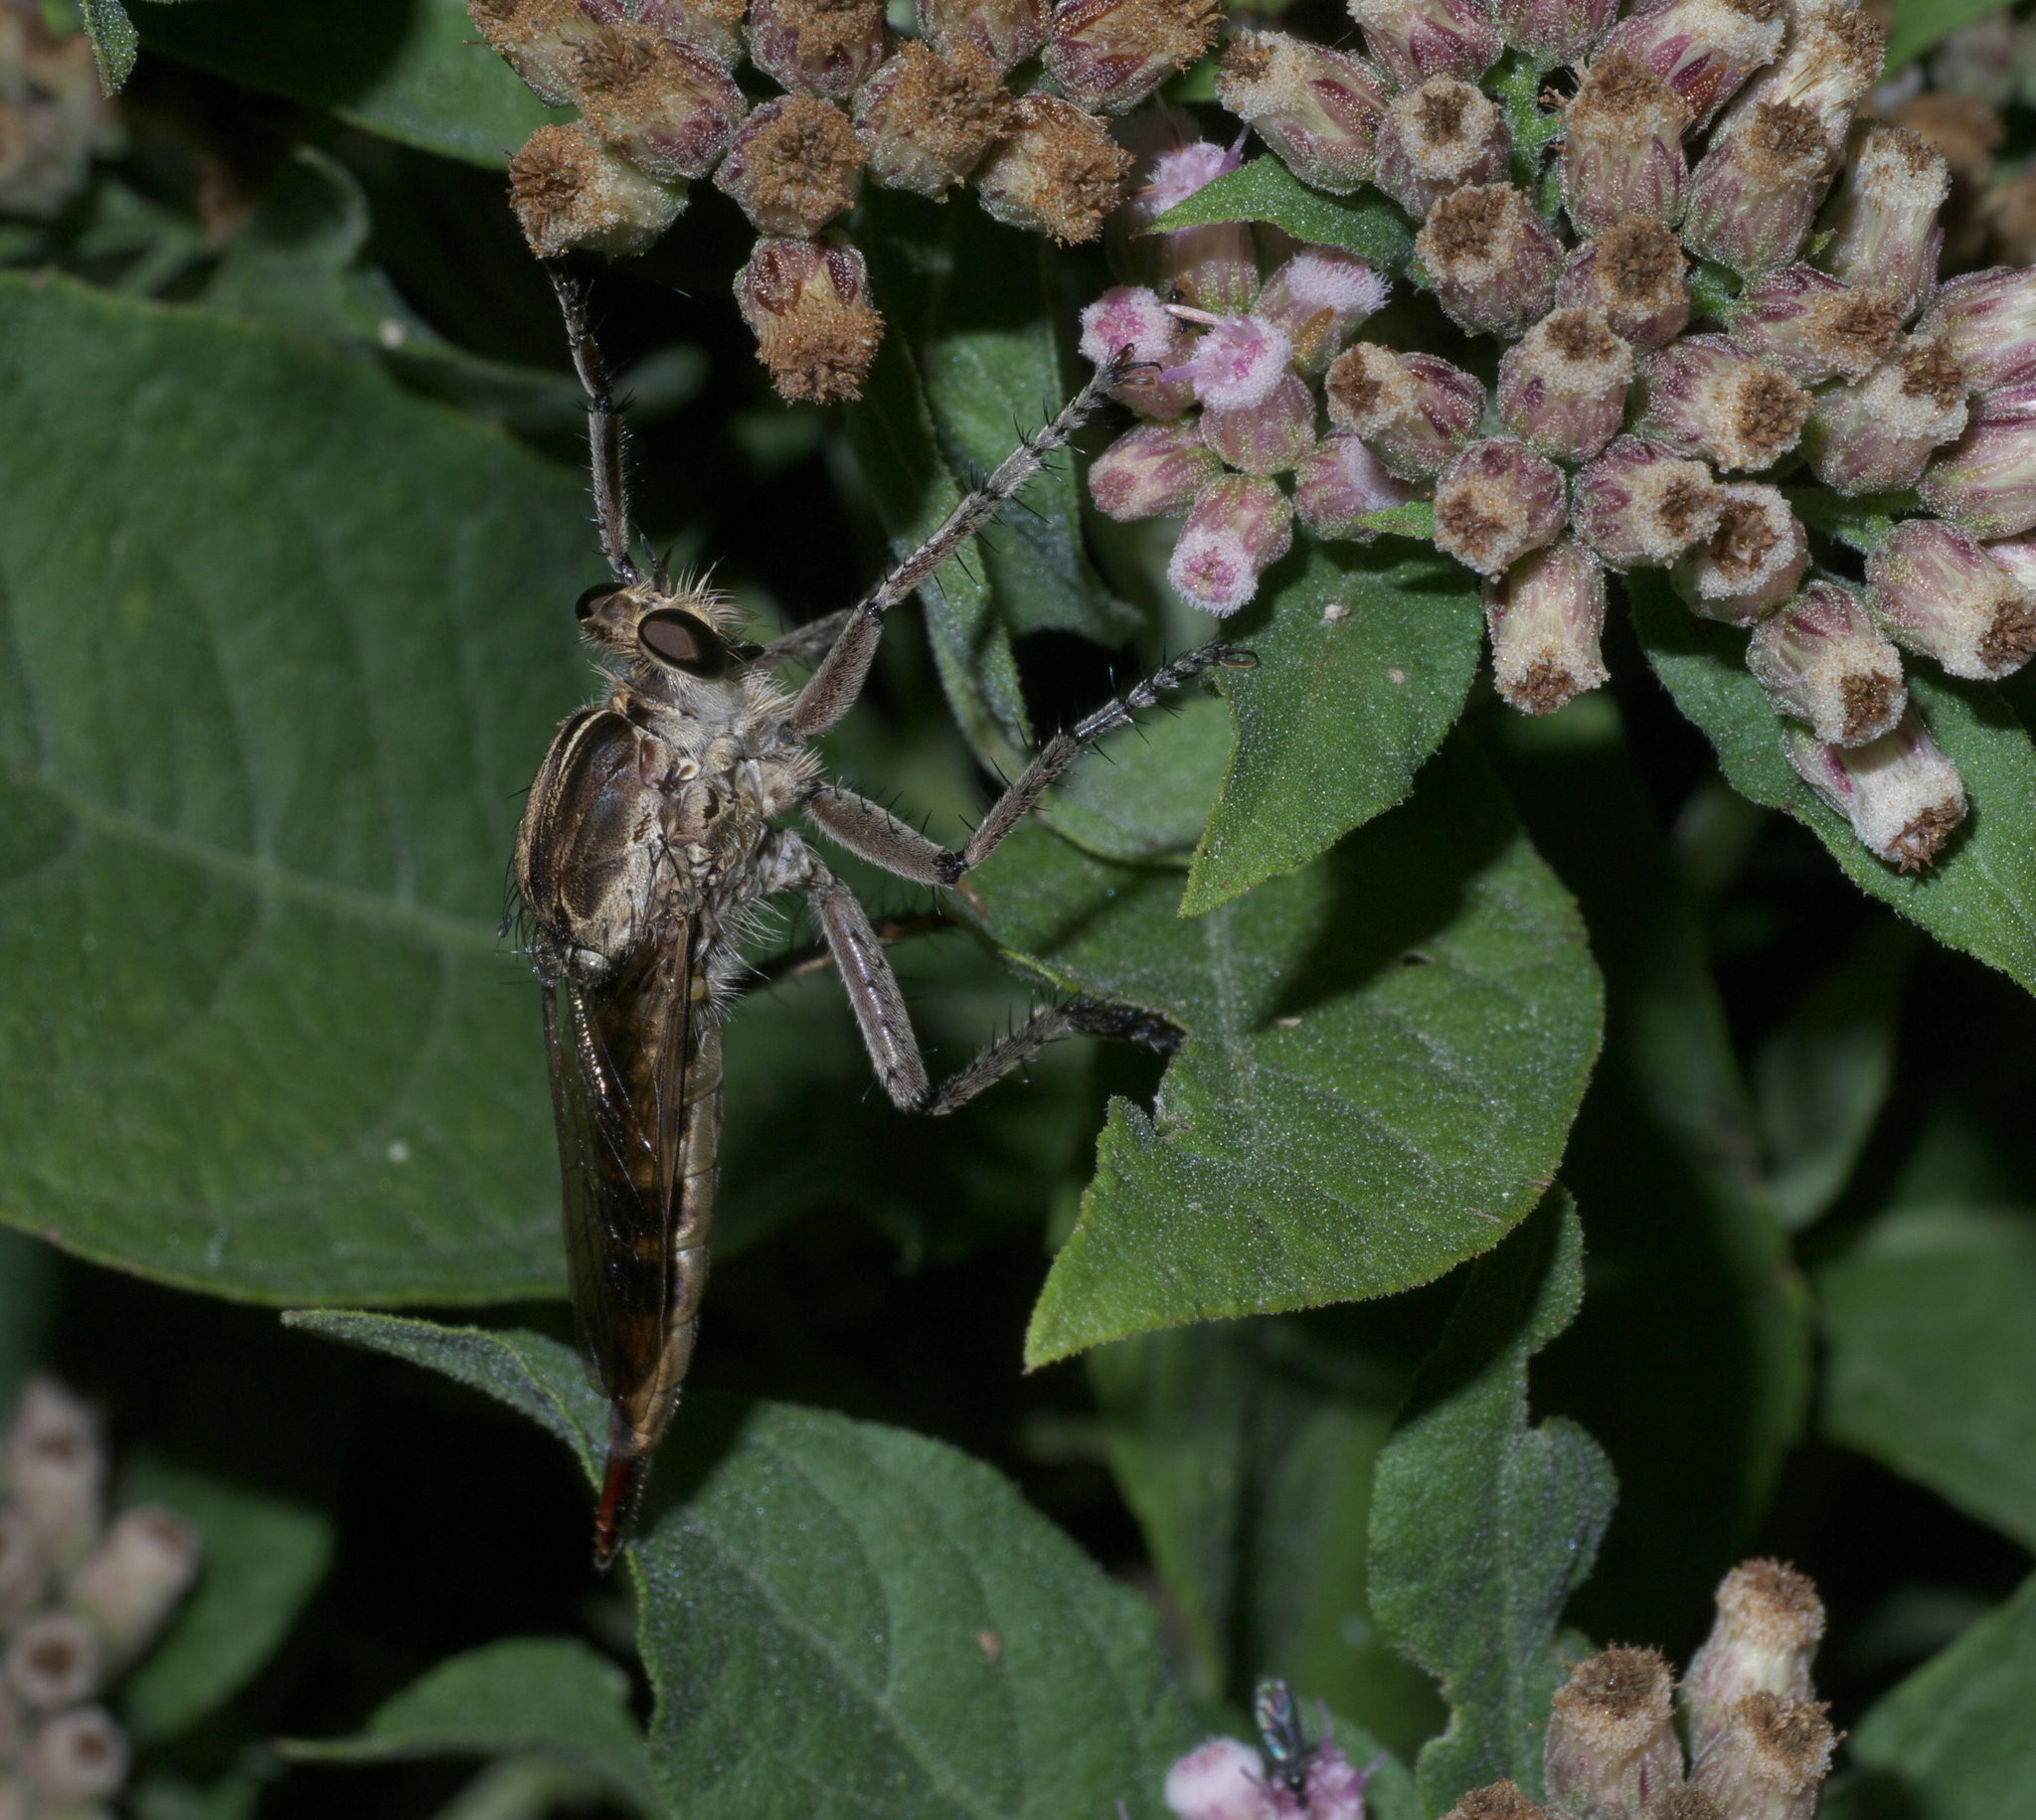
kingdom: Animalia
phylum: Arthropoda
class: Insecta
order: Diptera
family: Asilidae
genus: Triorla
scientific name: Triorla interrupta
